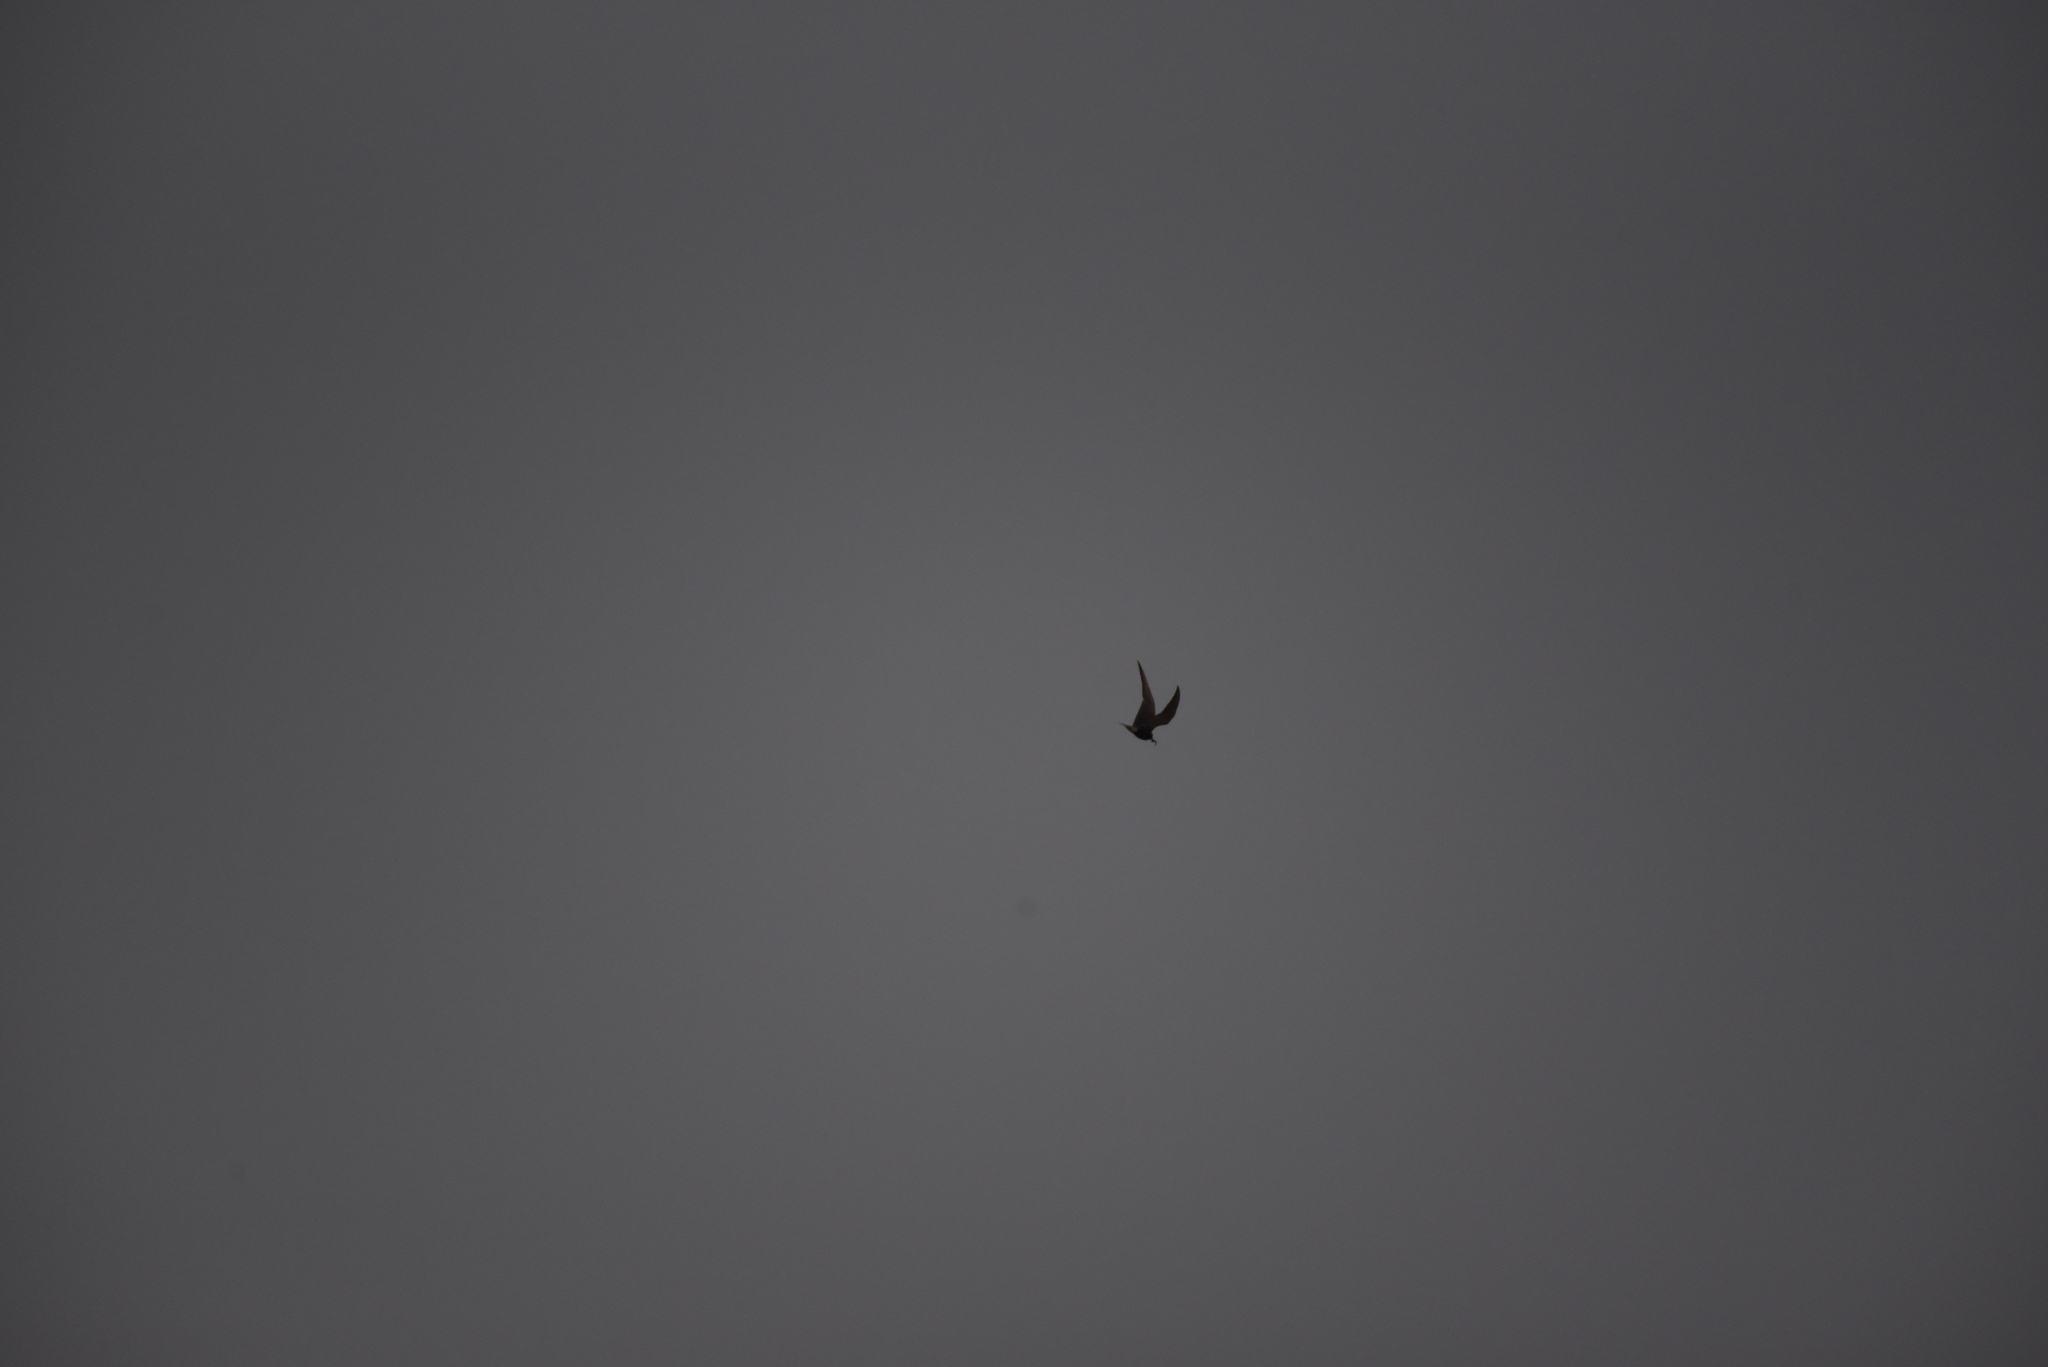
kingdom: Animalia
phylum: Chordata
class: Aves
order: Charadriiformes
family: Laridae
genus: Chlidonias
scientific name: Chlidonias niger
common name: Black tern
